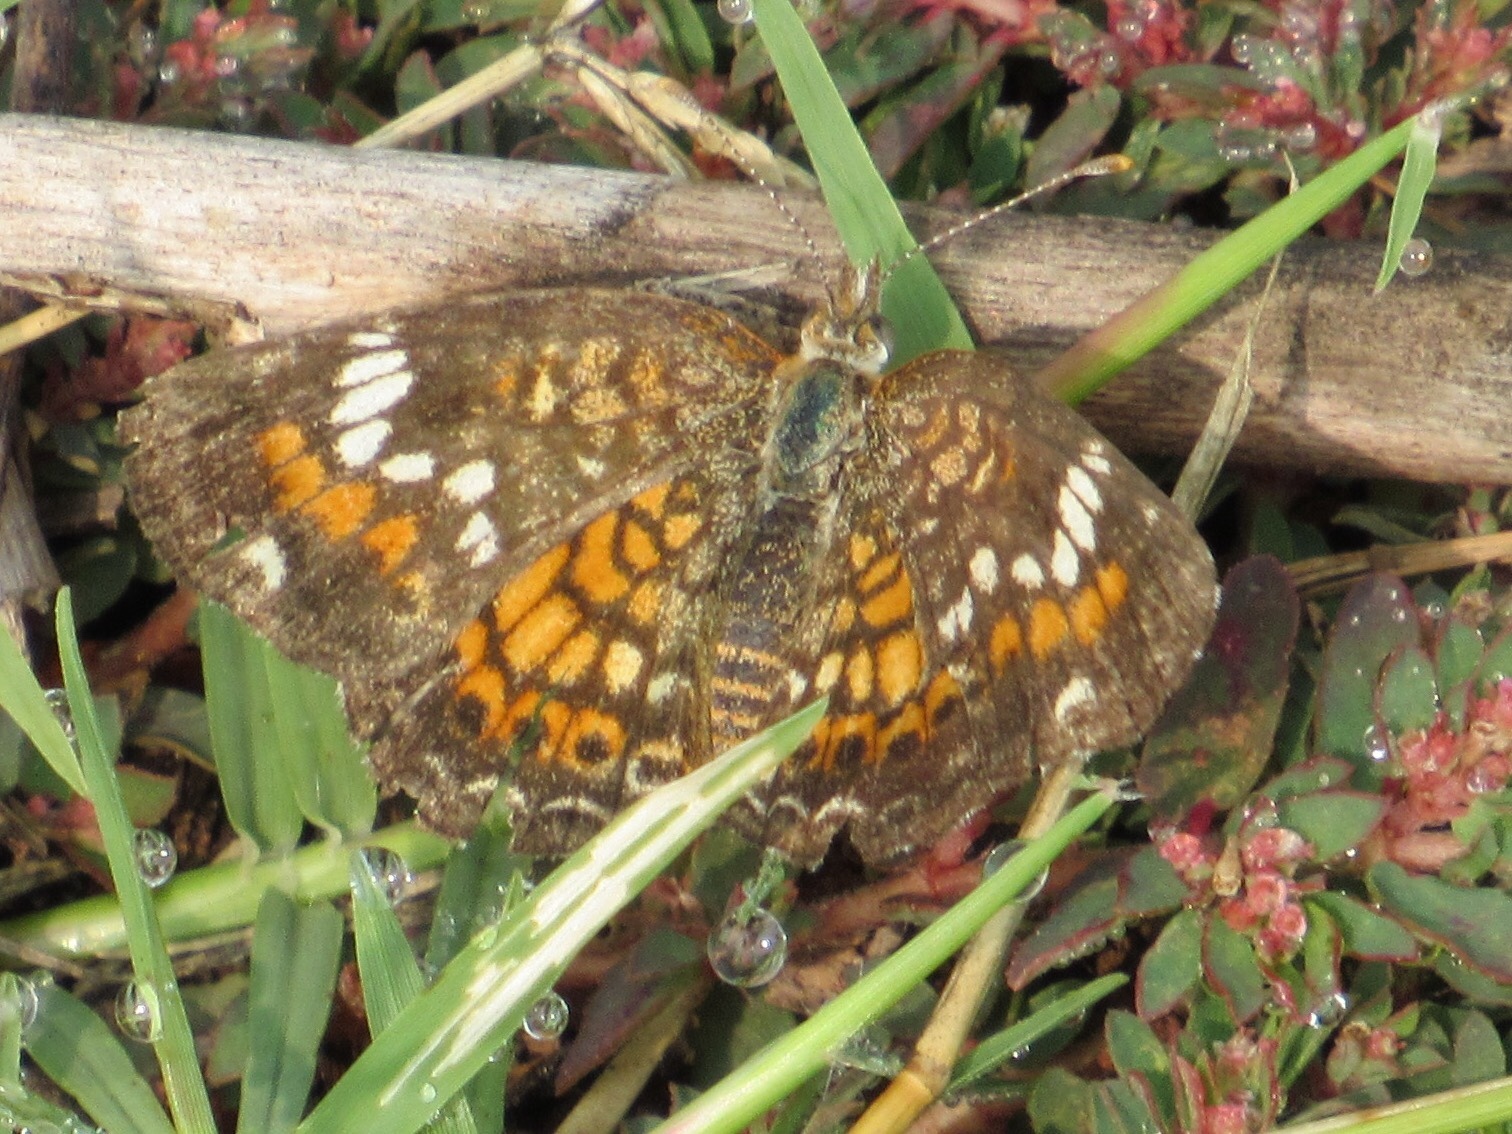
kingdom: Animalia
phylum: Arthropoda
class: Insecta
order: Lepidoptera
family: Nymphalidae
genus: Phyciodes
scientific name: Phyciodes phaon
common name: Phaon crescent
